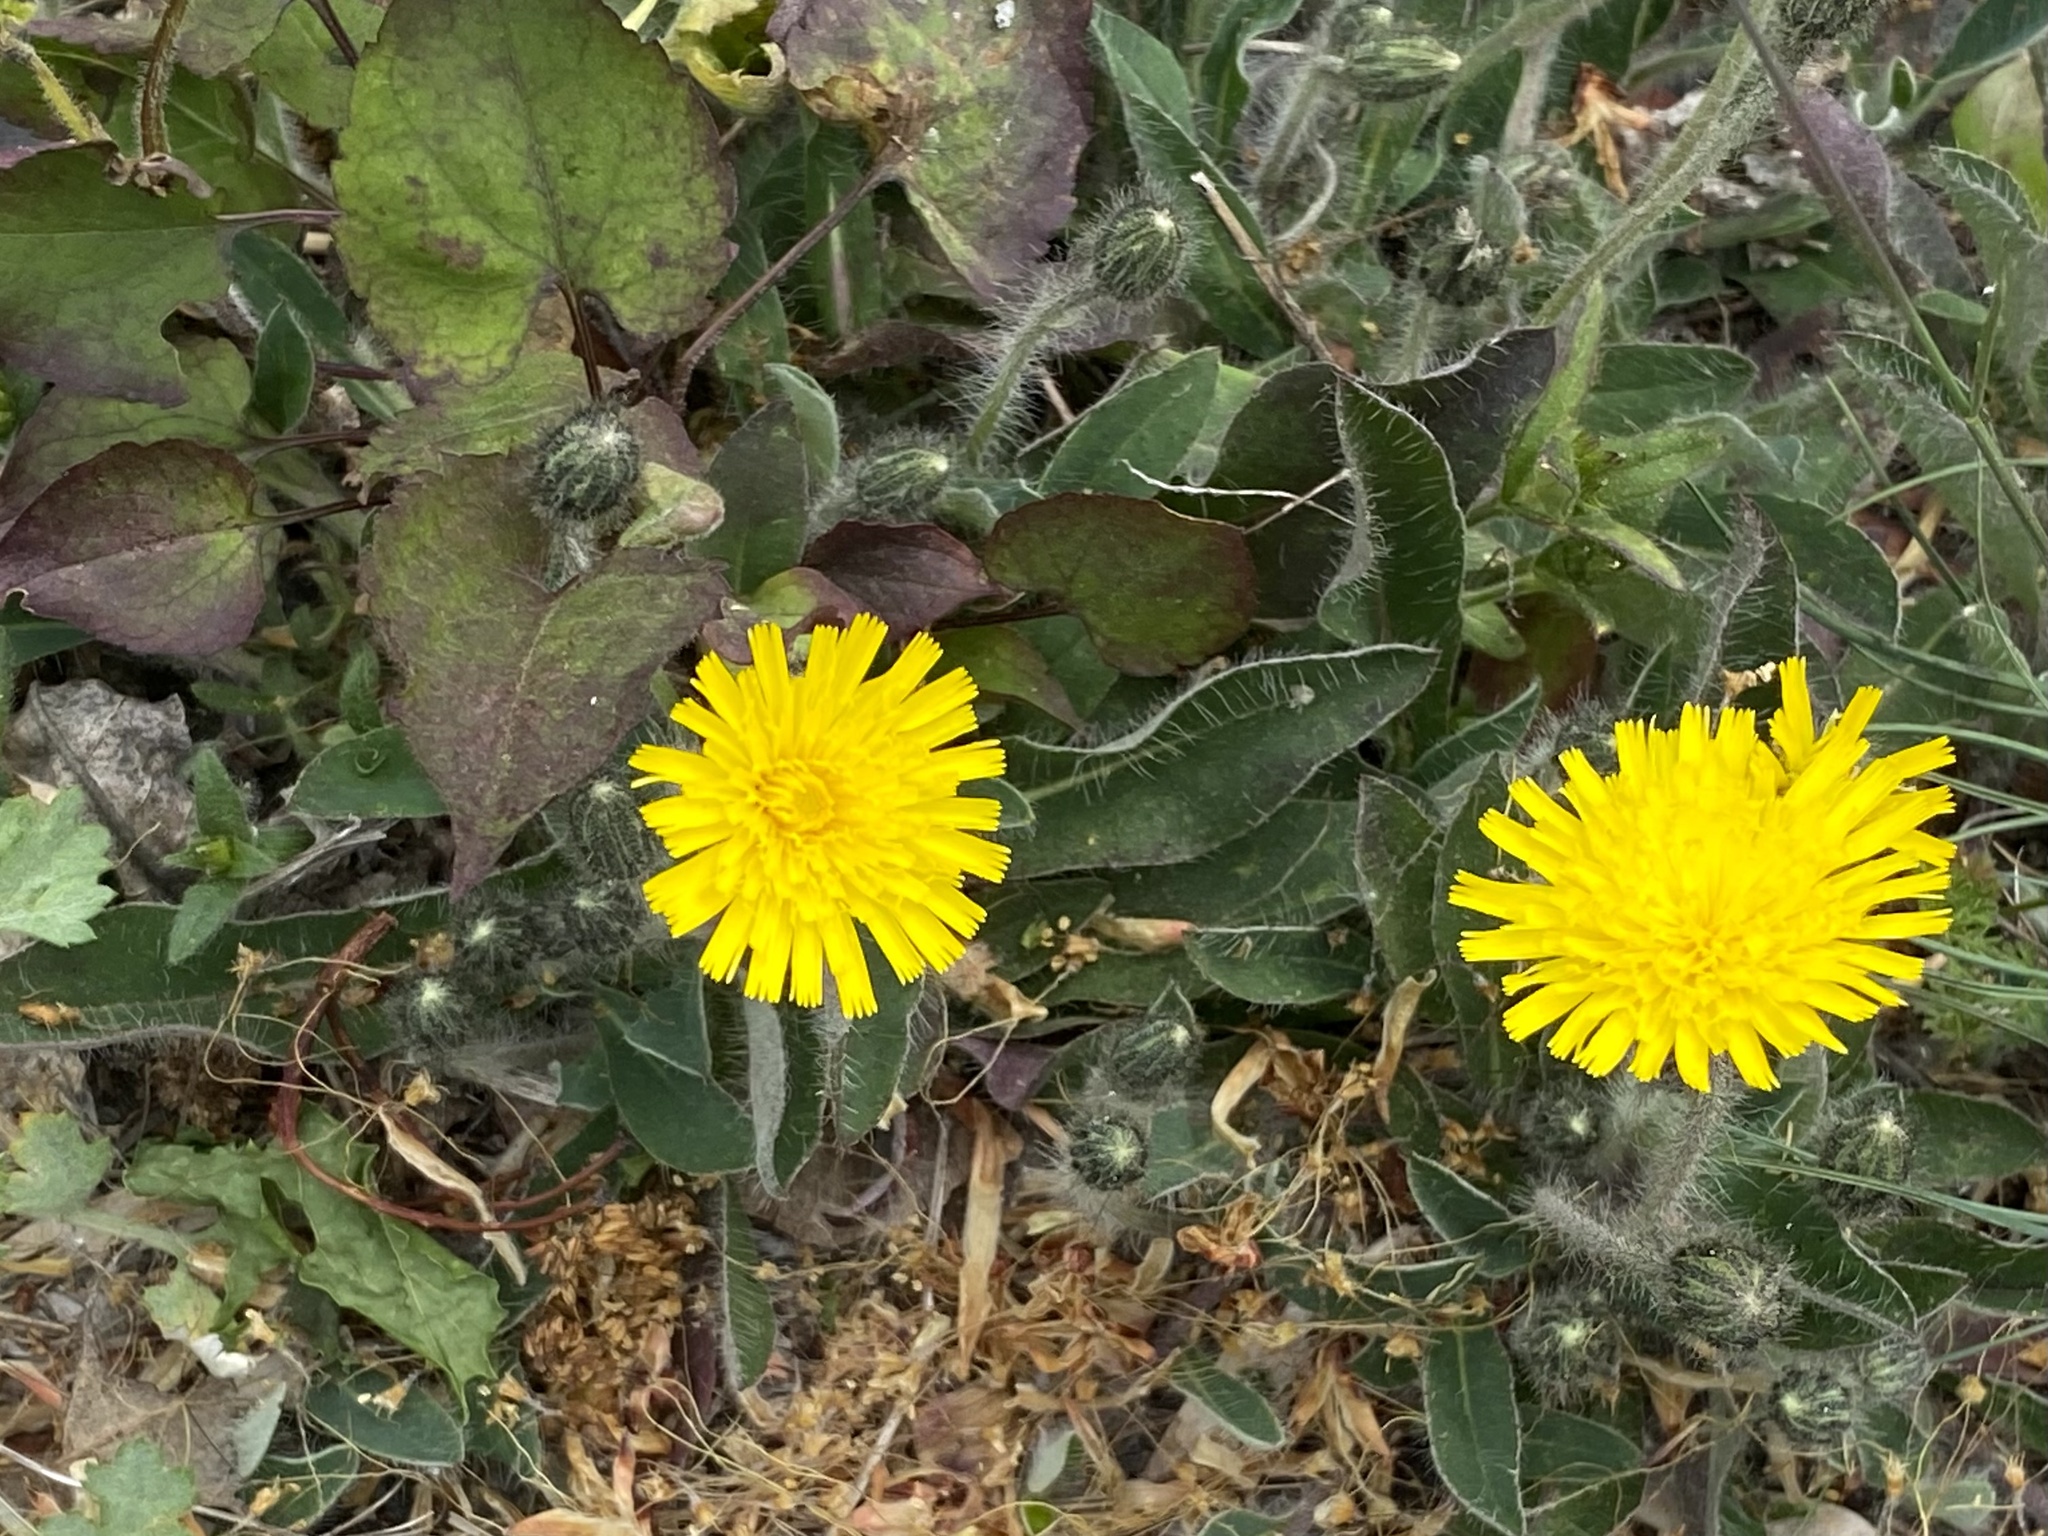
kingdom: Plantae
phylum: Tracheophyta
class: Magnoliopsida
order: Asterales
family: Asteraceae
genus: Pilosella
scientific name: Pilosella officinarum
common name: Mouse-ear hawkweed
